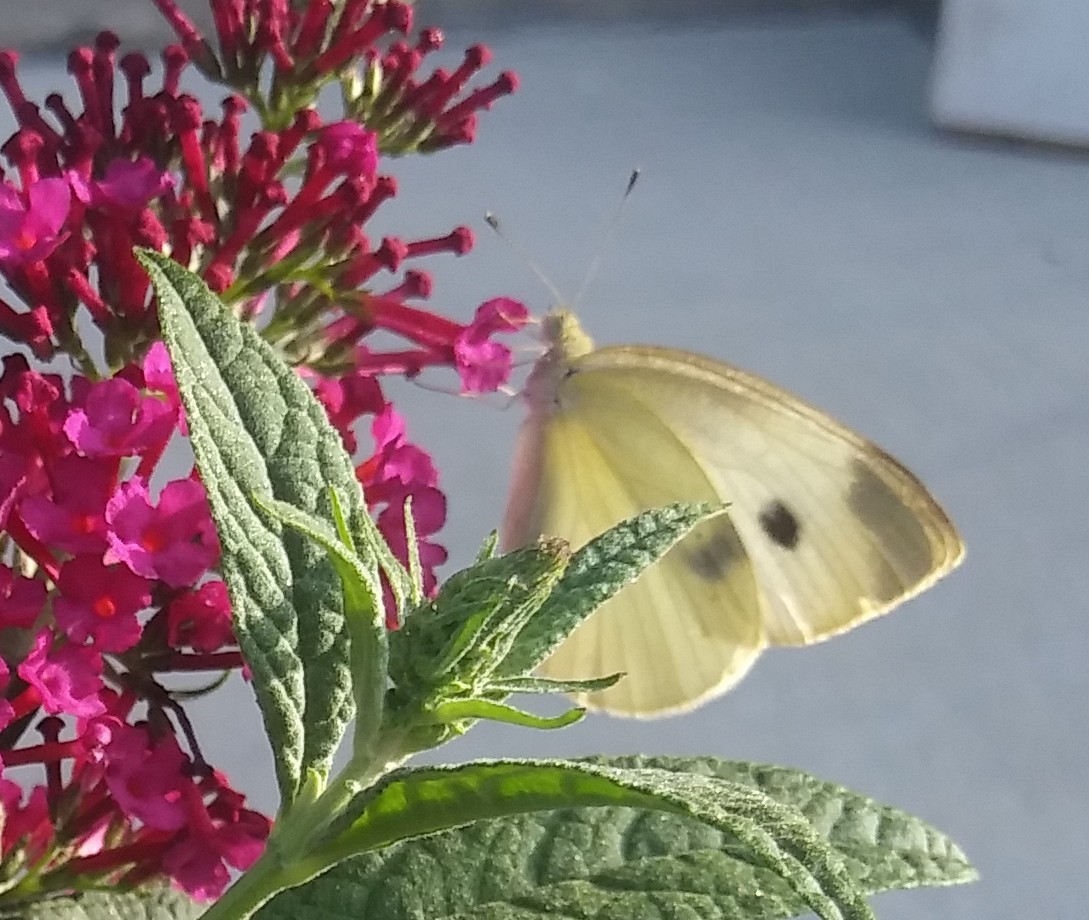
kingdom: Animalia
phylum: Arthropoda
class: Insecta
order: Lepidoptera
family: Pieridae
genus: Pieris
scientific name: Pieris rapae
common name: Small white
